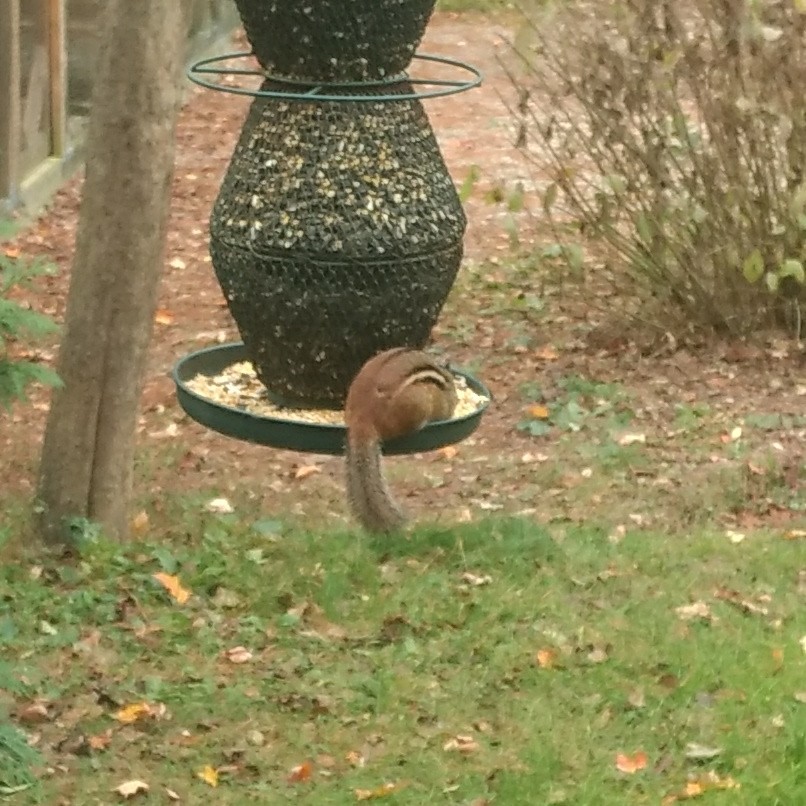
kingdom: Animalia
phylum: Chordata
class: Mammalia
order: Rodentia
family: Sciuridae
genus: Tamias
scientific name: Tamias striatus
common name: Eastern chipmunk
